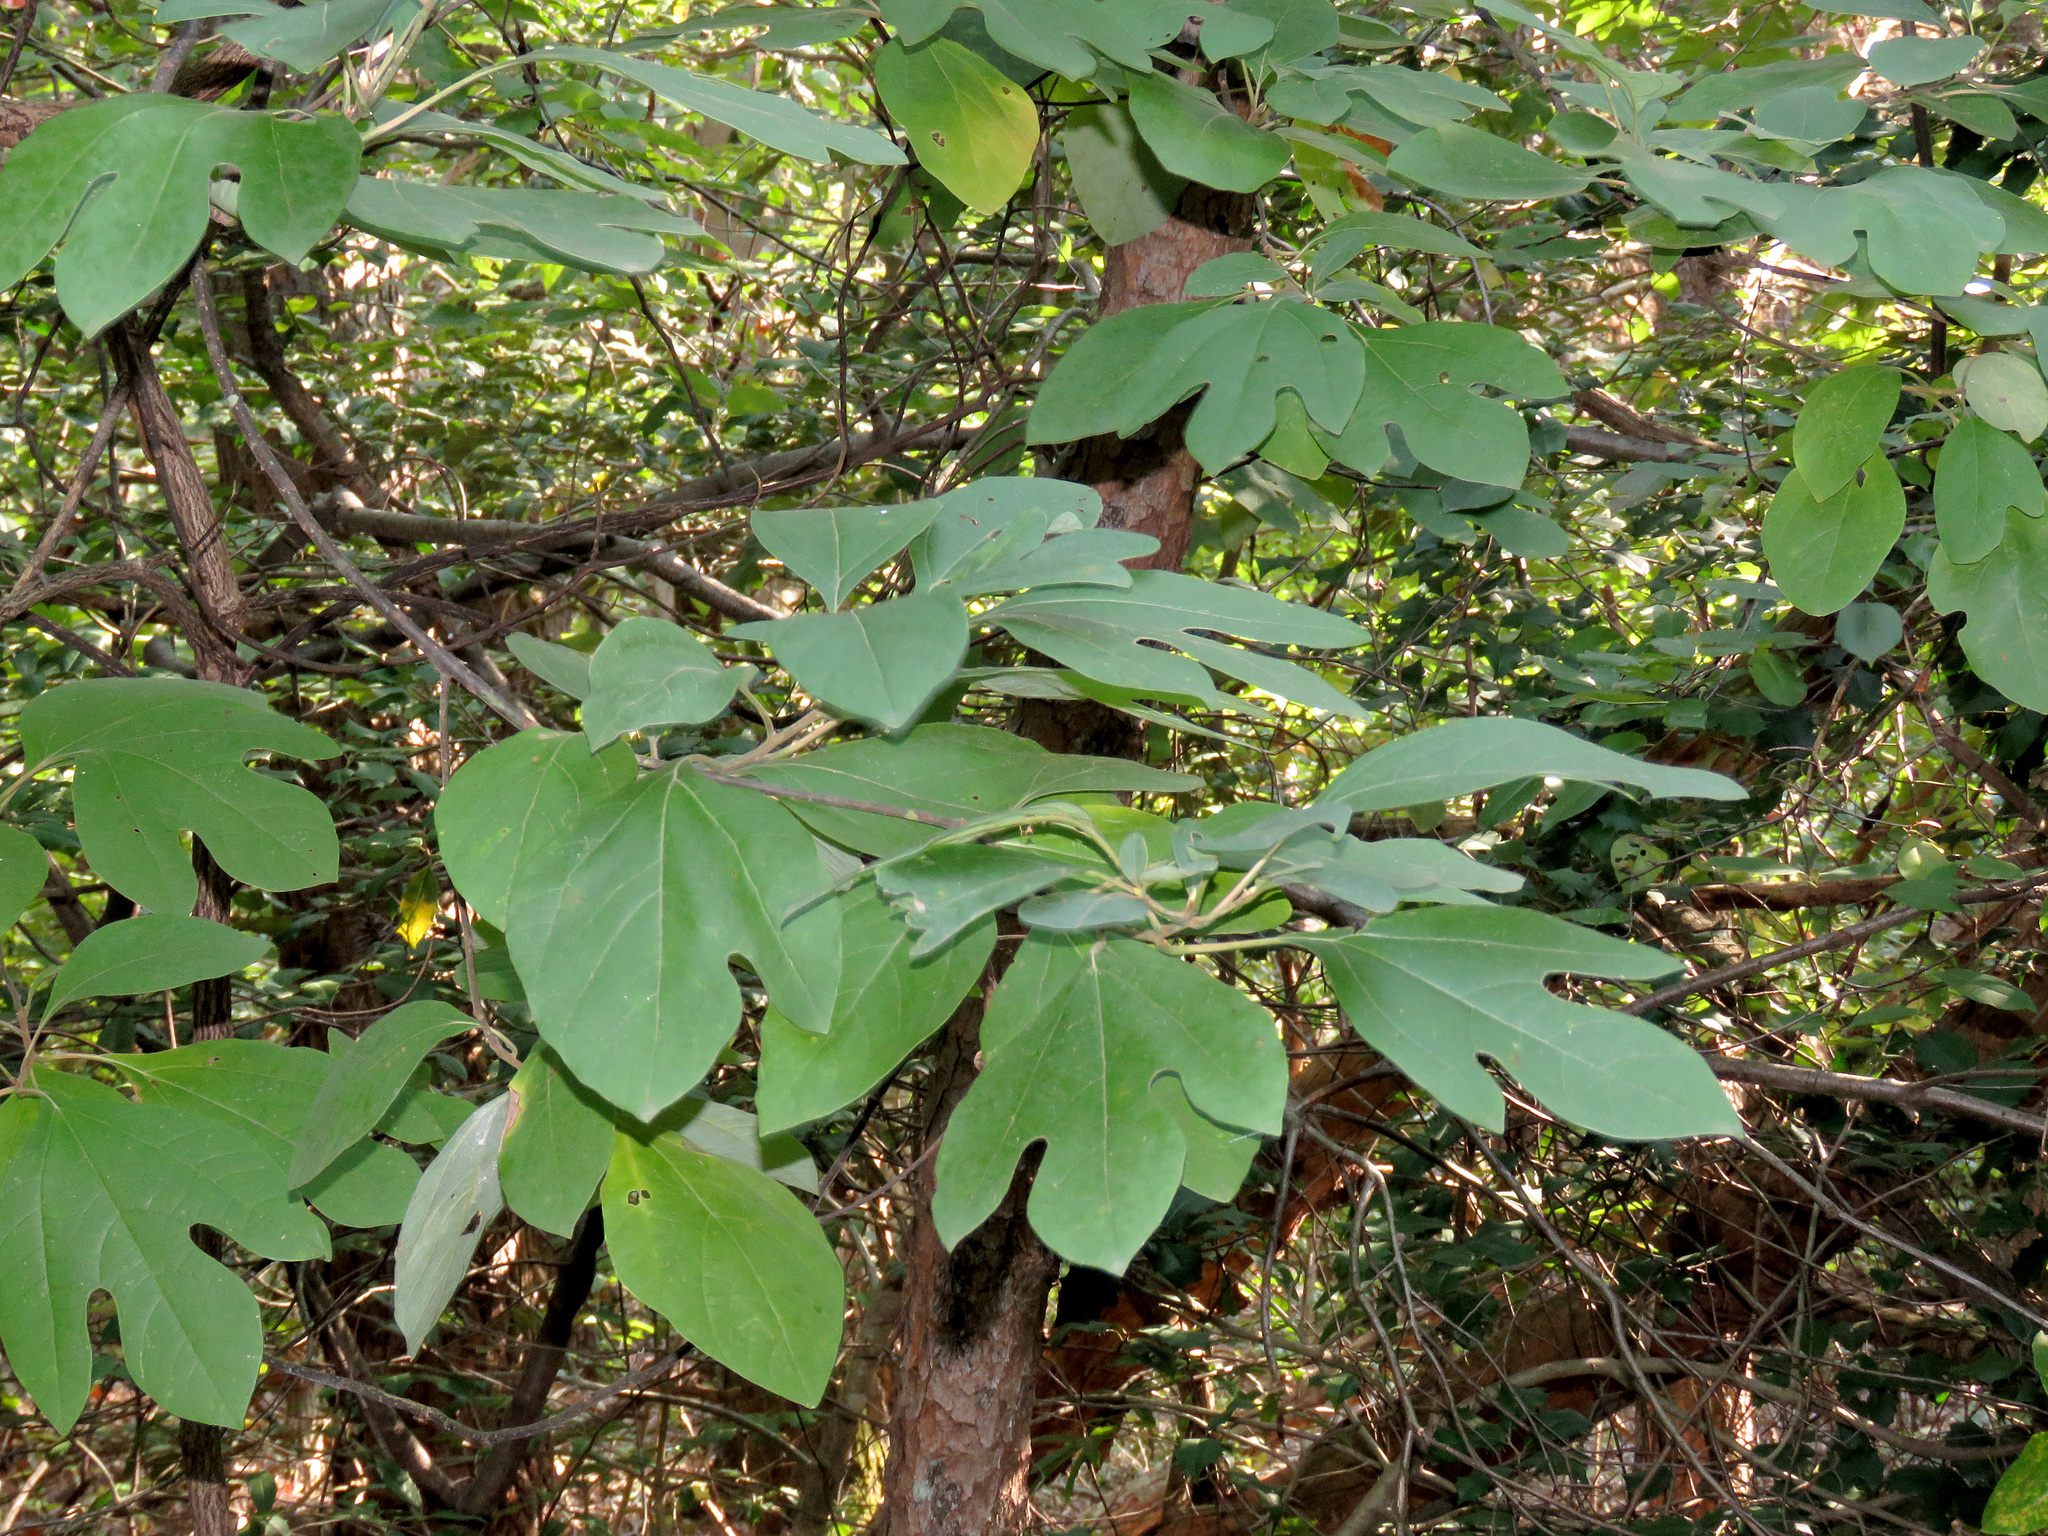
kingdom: Plantae
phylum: Tracheophyta
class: Magnoliopsida
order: Laurales
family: Lauraceae
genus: Sassafras
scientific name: Sassafras albidum
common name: Sassafras
